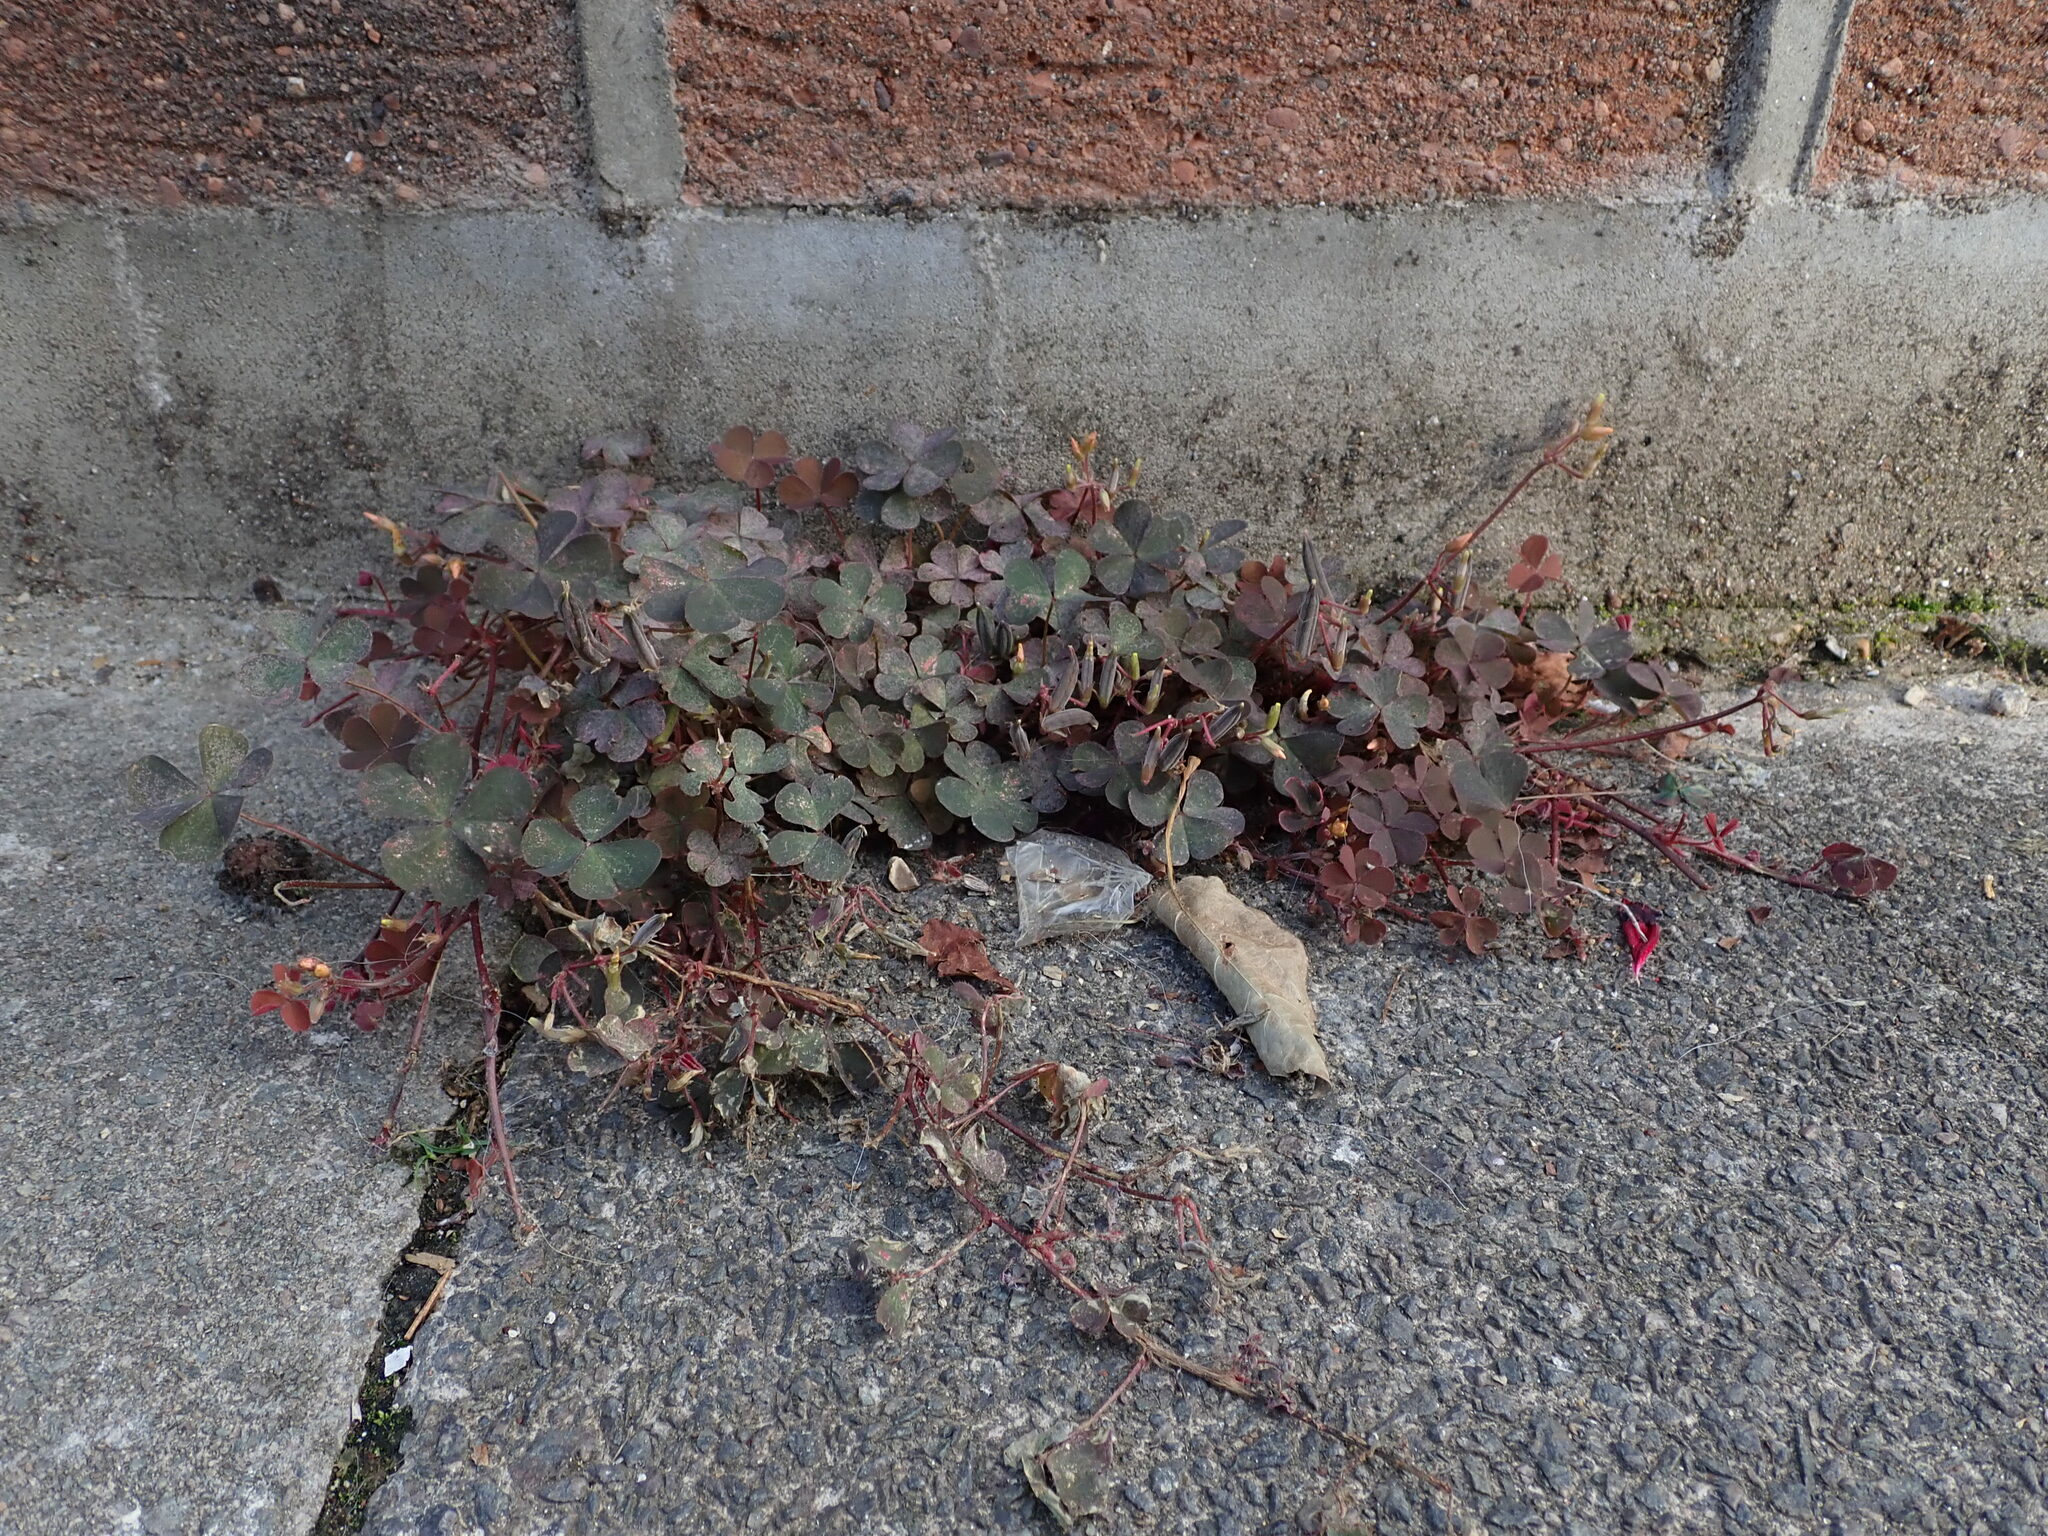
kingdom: Plantae
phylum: Tracheophyta
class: Magnoliopsida
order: Oxalidales
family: Oxalidaceae
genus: Oxalis
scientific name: Oxalis corniculata
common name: Procumbent yellow-sorrel
